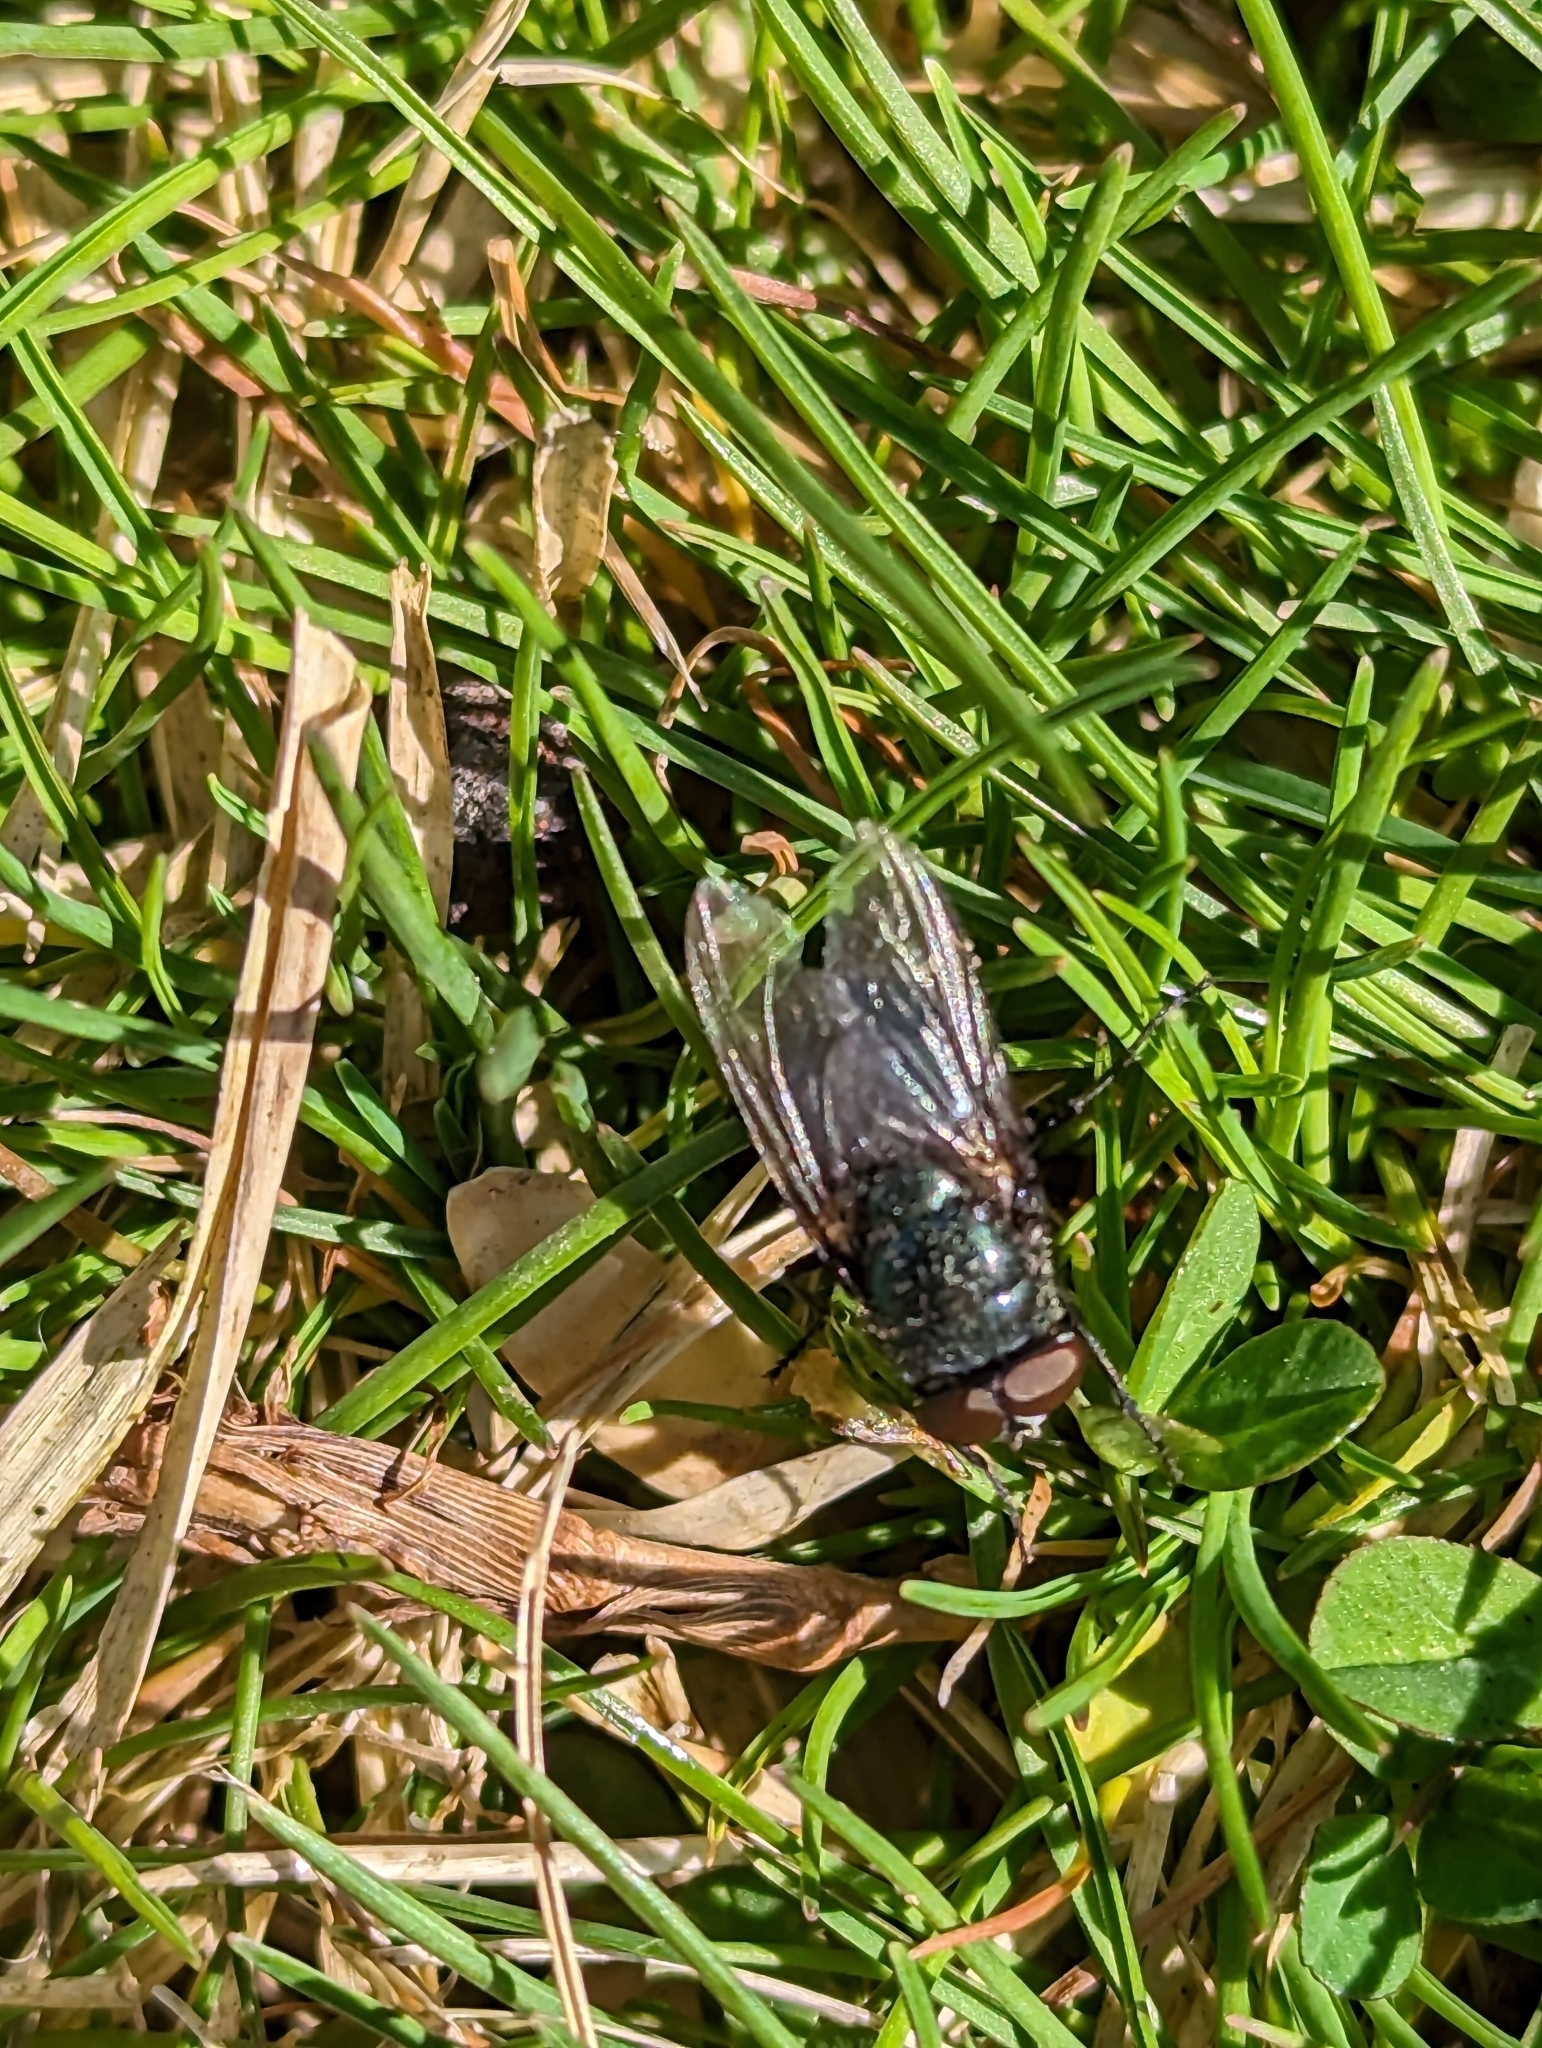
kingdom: Animalia
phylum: Arthropoda
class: Insecta
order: Diptera
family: Calliphoridae
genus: Phormia
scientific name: Phormia regina
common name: Black blow fly
